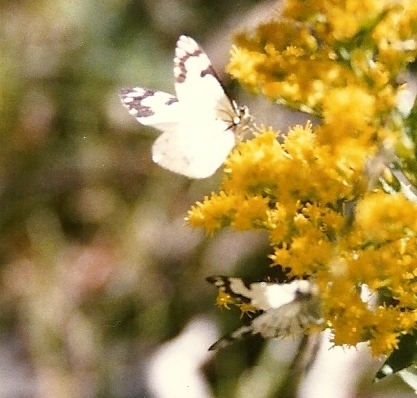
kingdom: Animalia
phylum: Arthropoda
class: Insecta
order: Lepidoptera
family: Pieridae
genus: Neophasia
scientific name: Neophasia menapia
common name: Pine white
